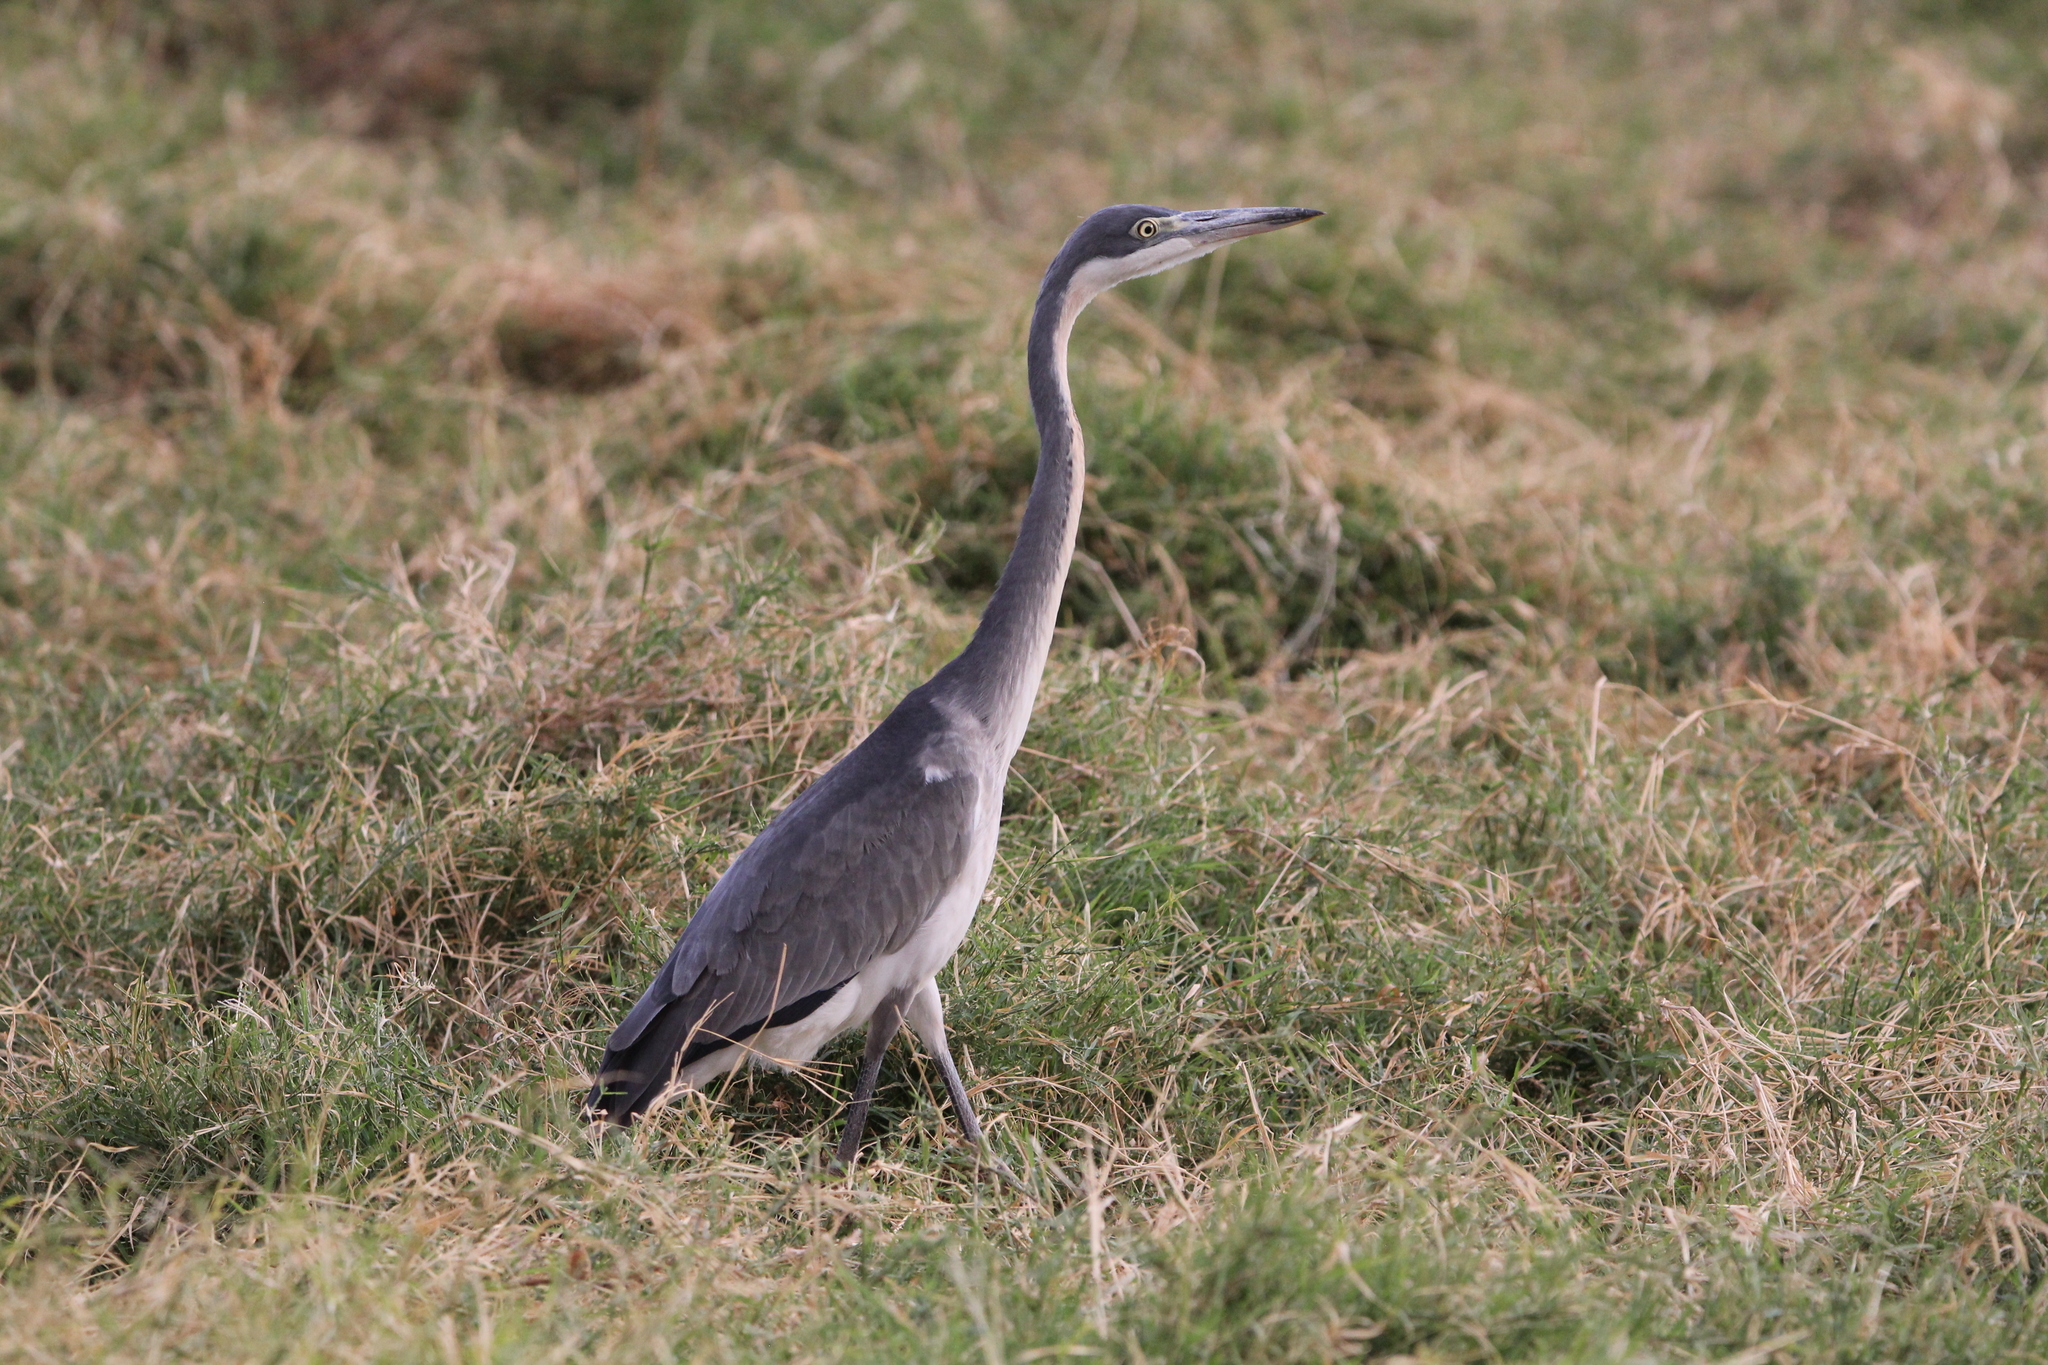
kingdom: Animalia
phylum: Chordata
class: Aves
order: Pelecaniformes
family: Ardeidae
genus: Ardea
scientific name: Ardea melanocephala
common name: Black-headed heron
